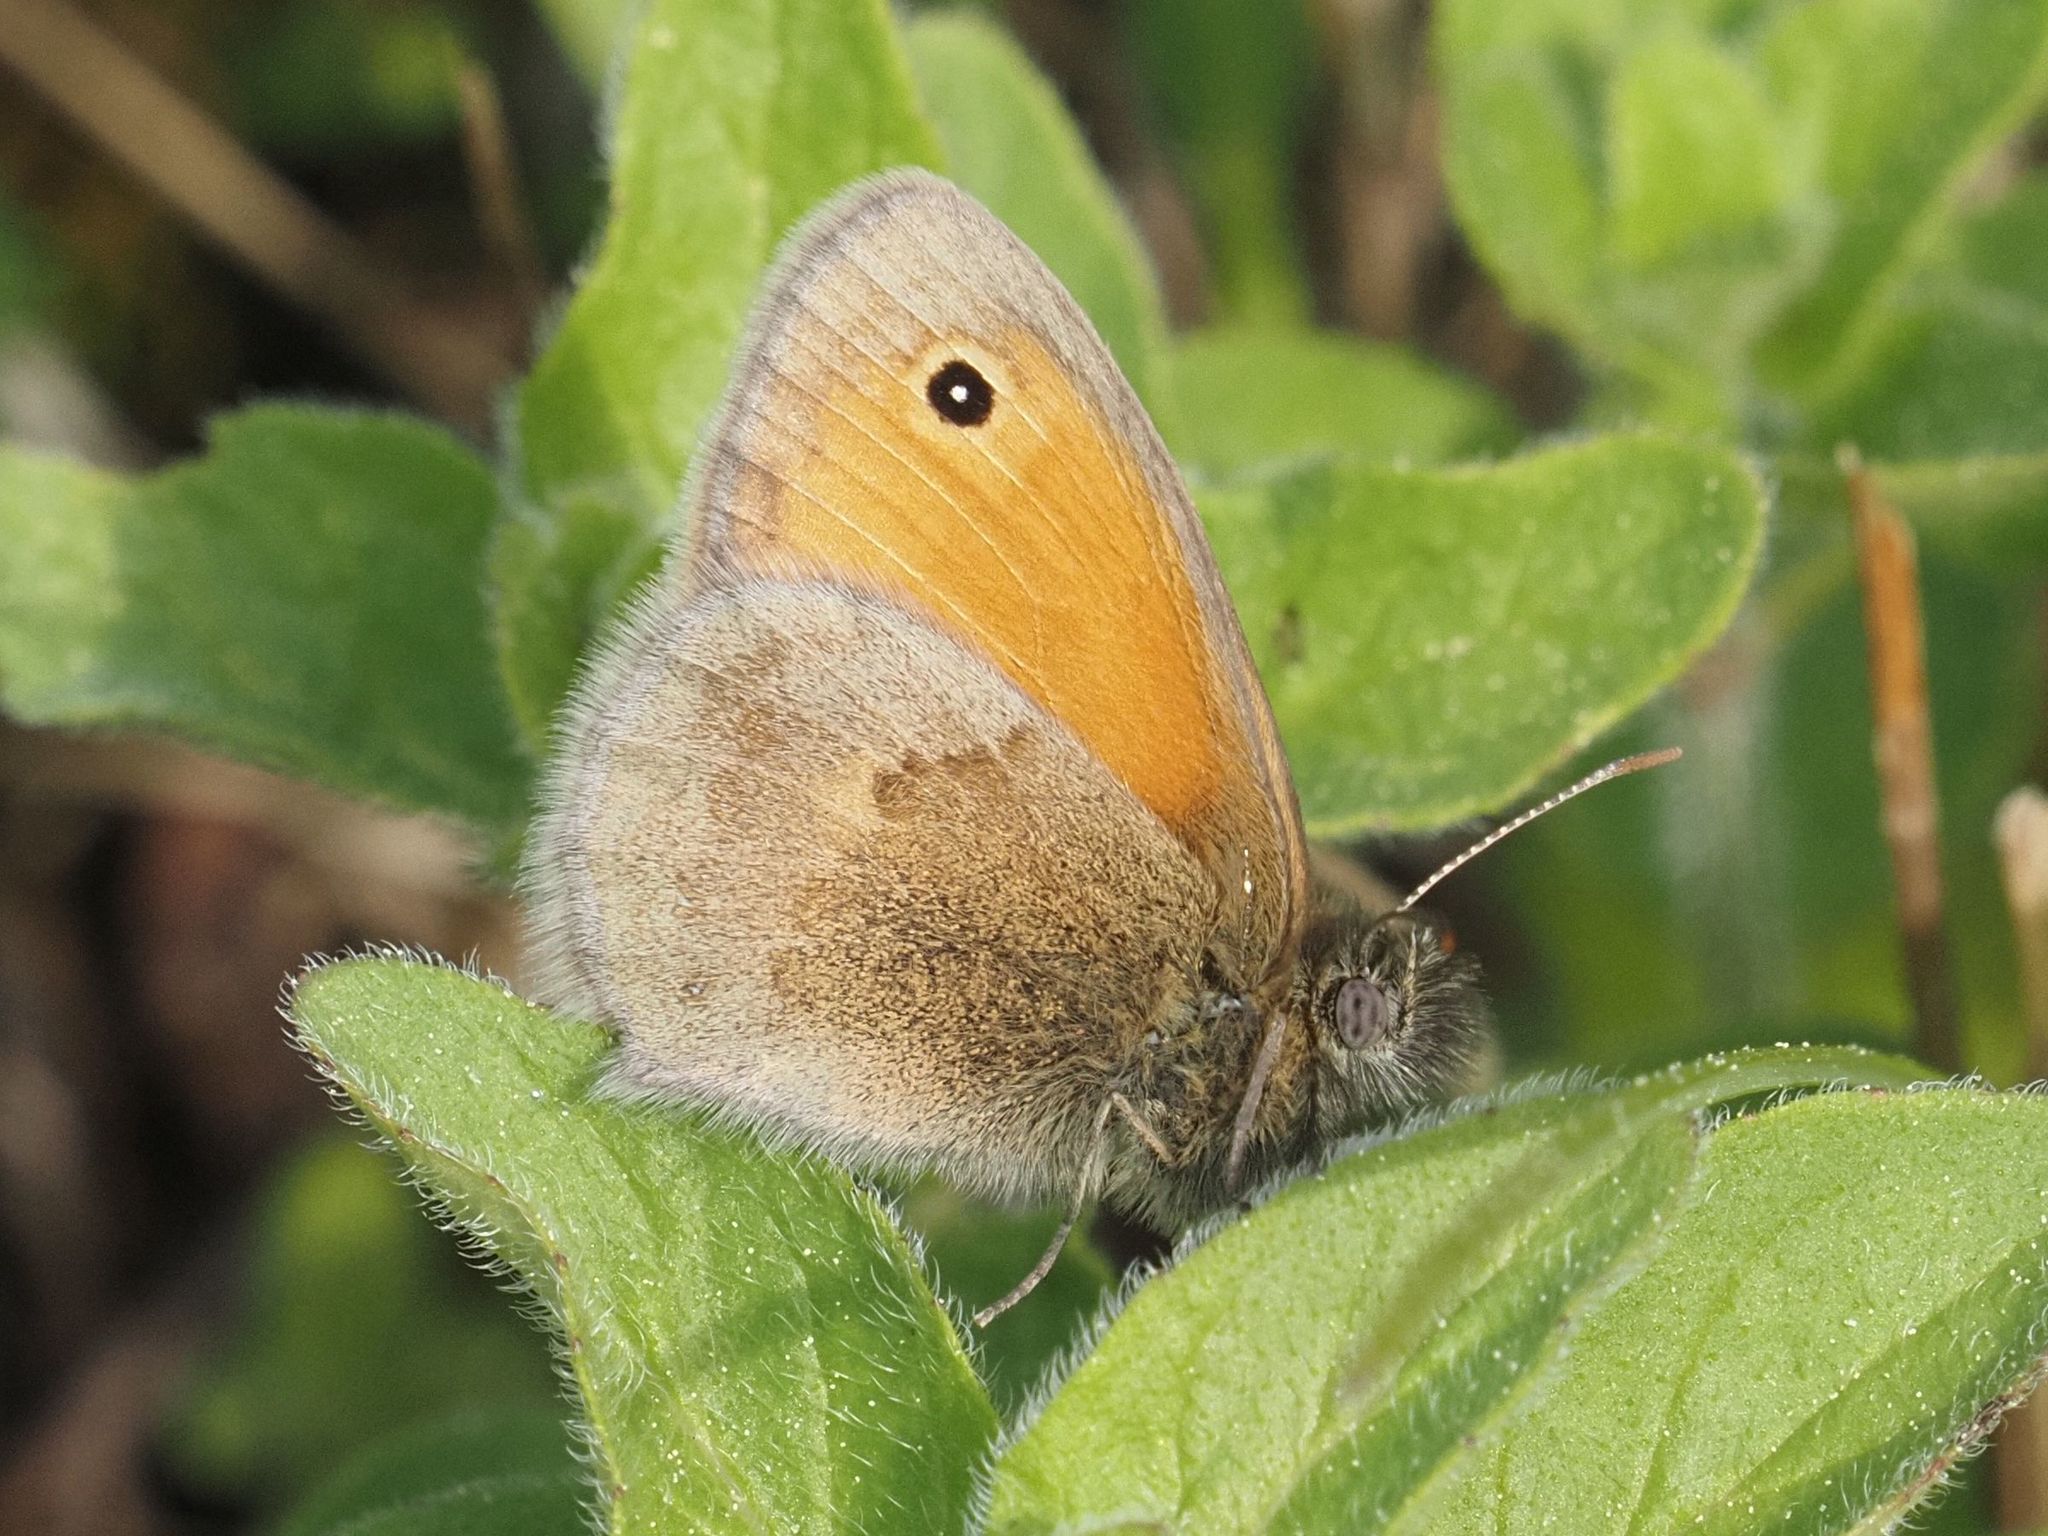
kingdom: Animalia
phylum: Arthropoda
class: Insecta
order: Lepidoptera
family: Nymphalidae
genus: Coenonympha
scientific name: Coenonympha pamphilus
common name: Small heath
